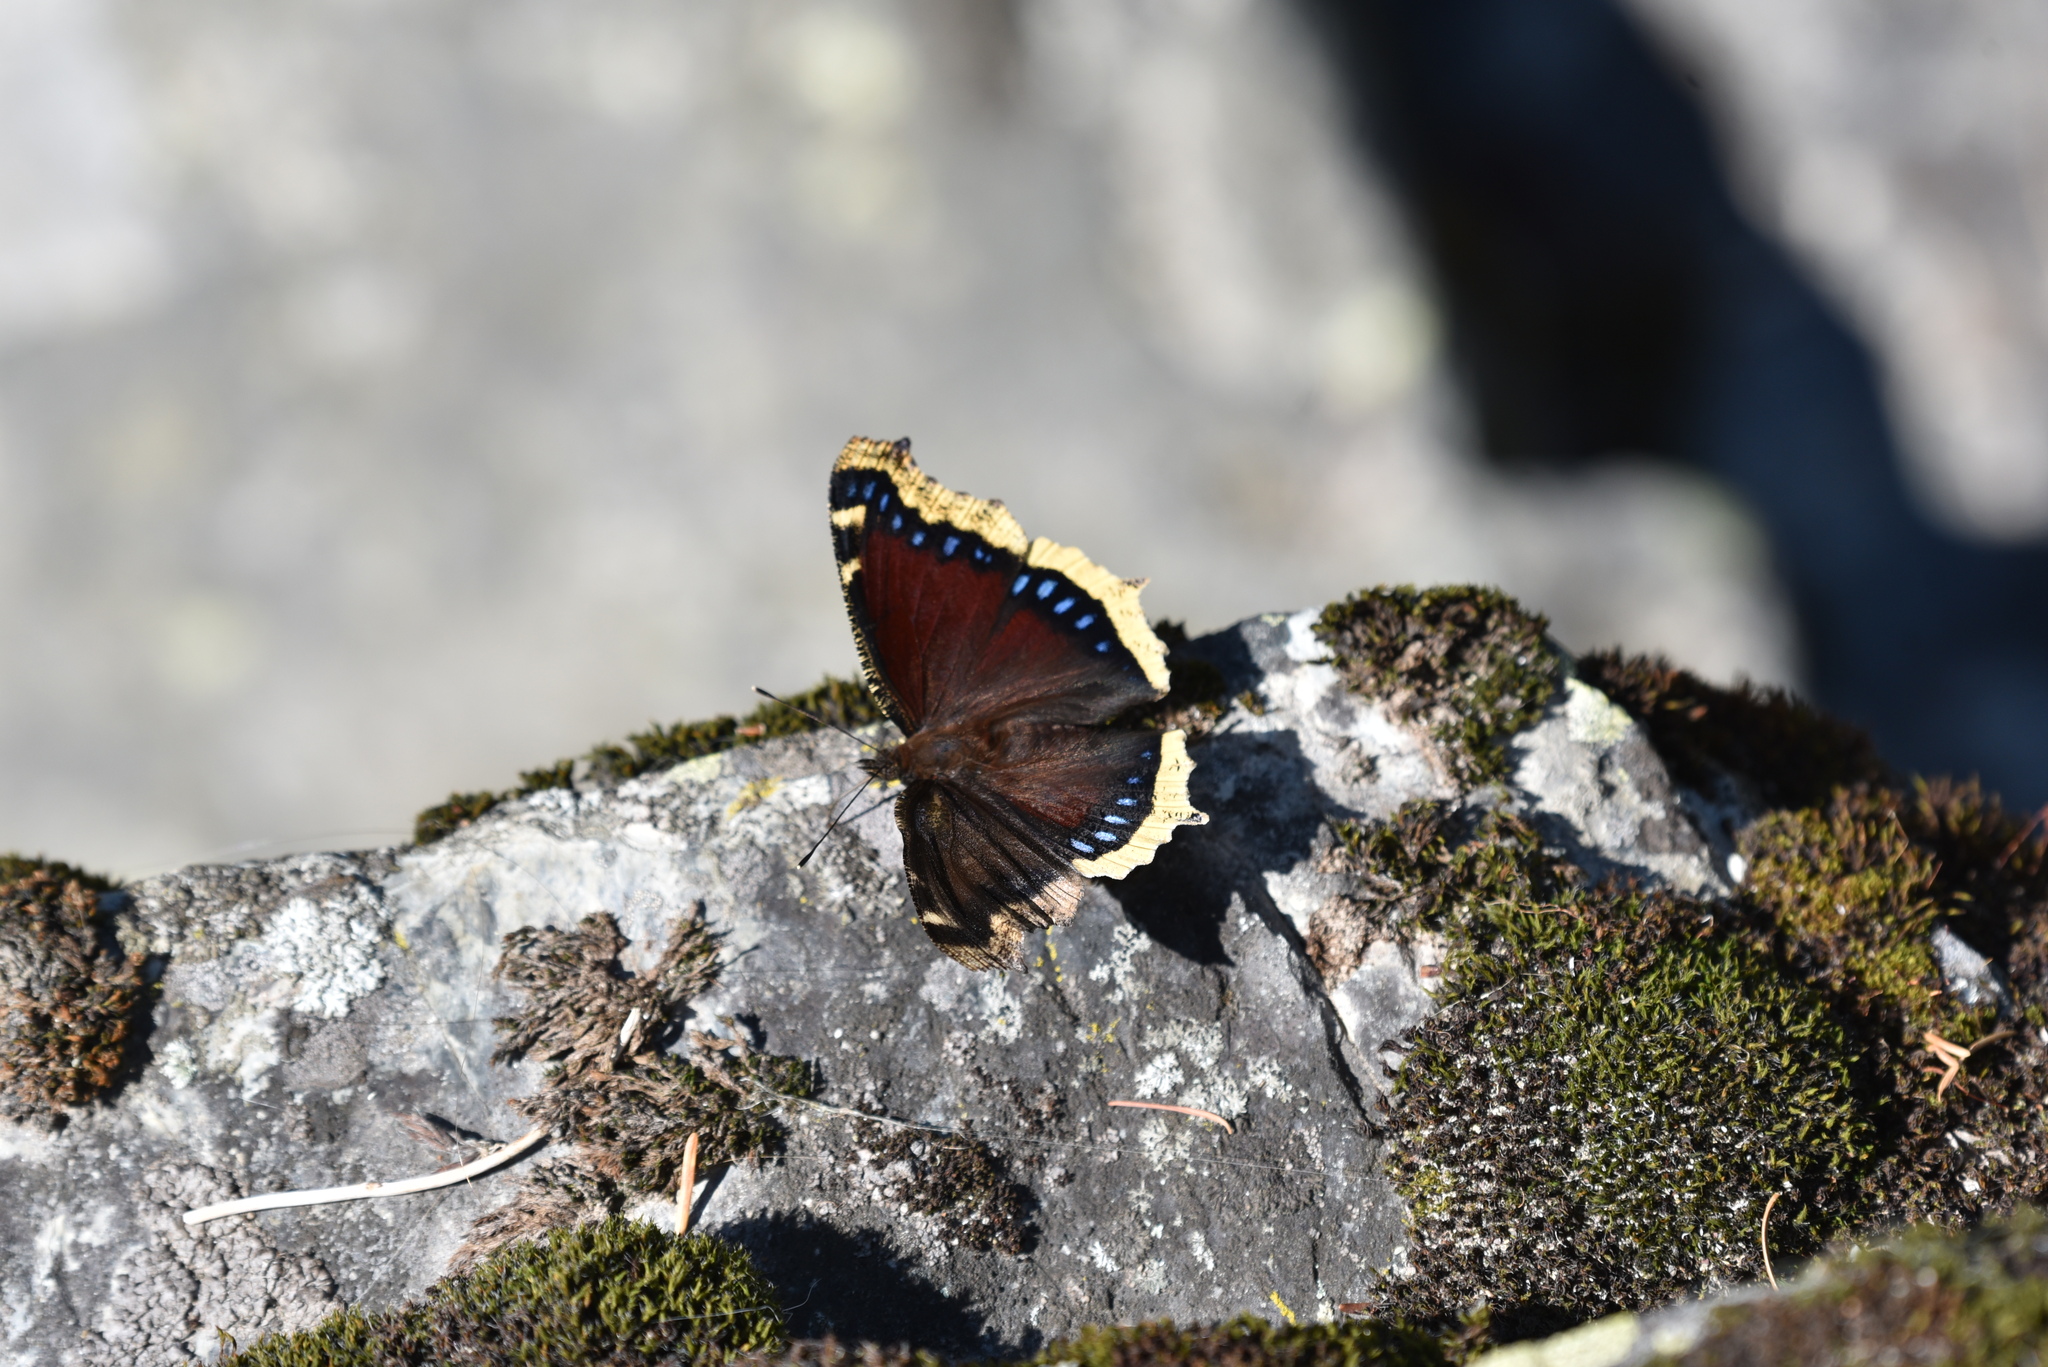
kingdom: Animalia
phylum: Arthropoda
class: Insecta
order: Lepidoptera
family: Nymphalidae
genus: Nymphalis
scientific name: Nymphalis antiopa
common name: Camberwell beauty
